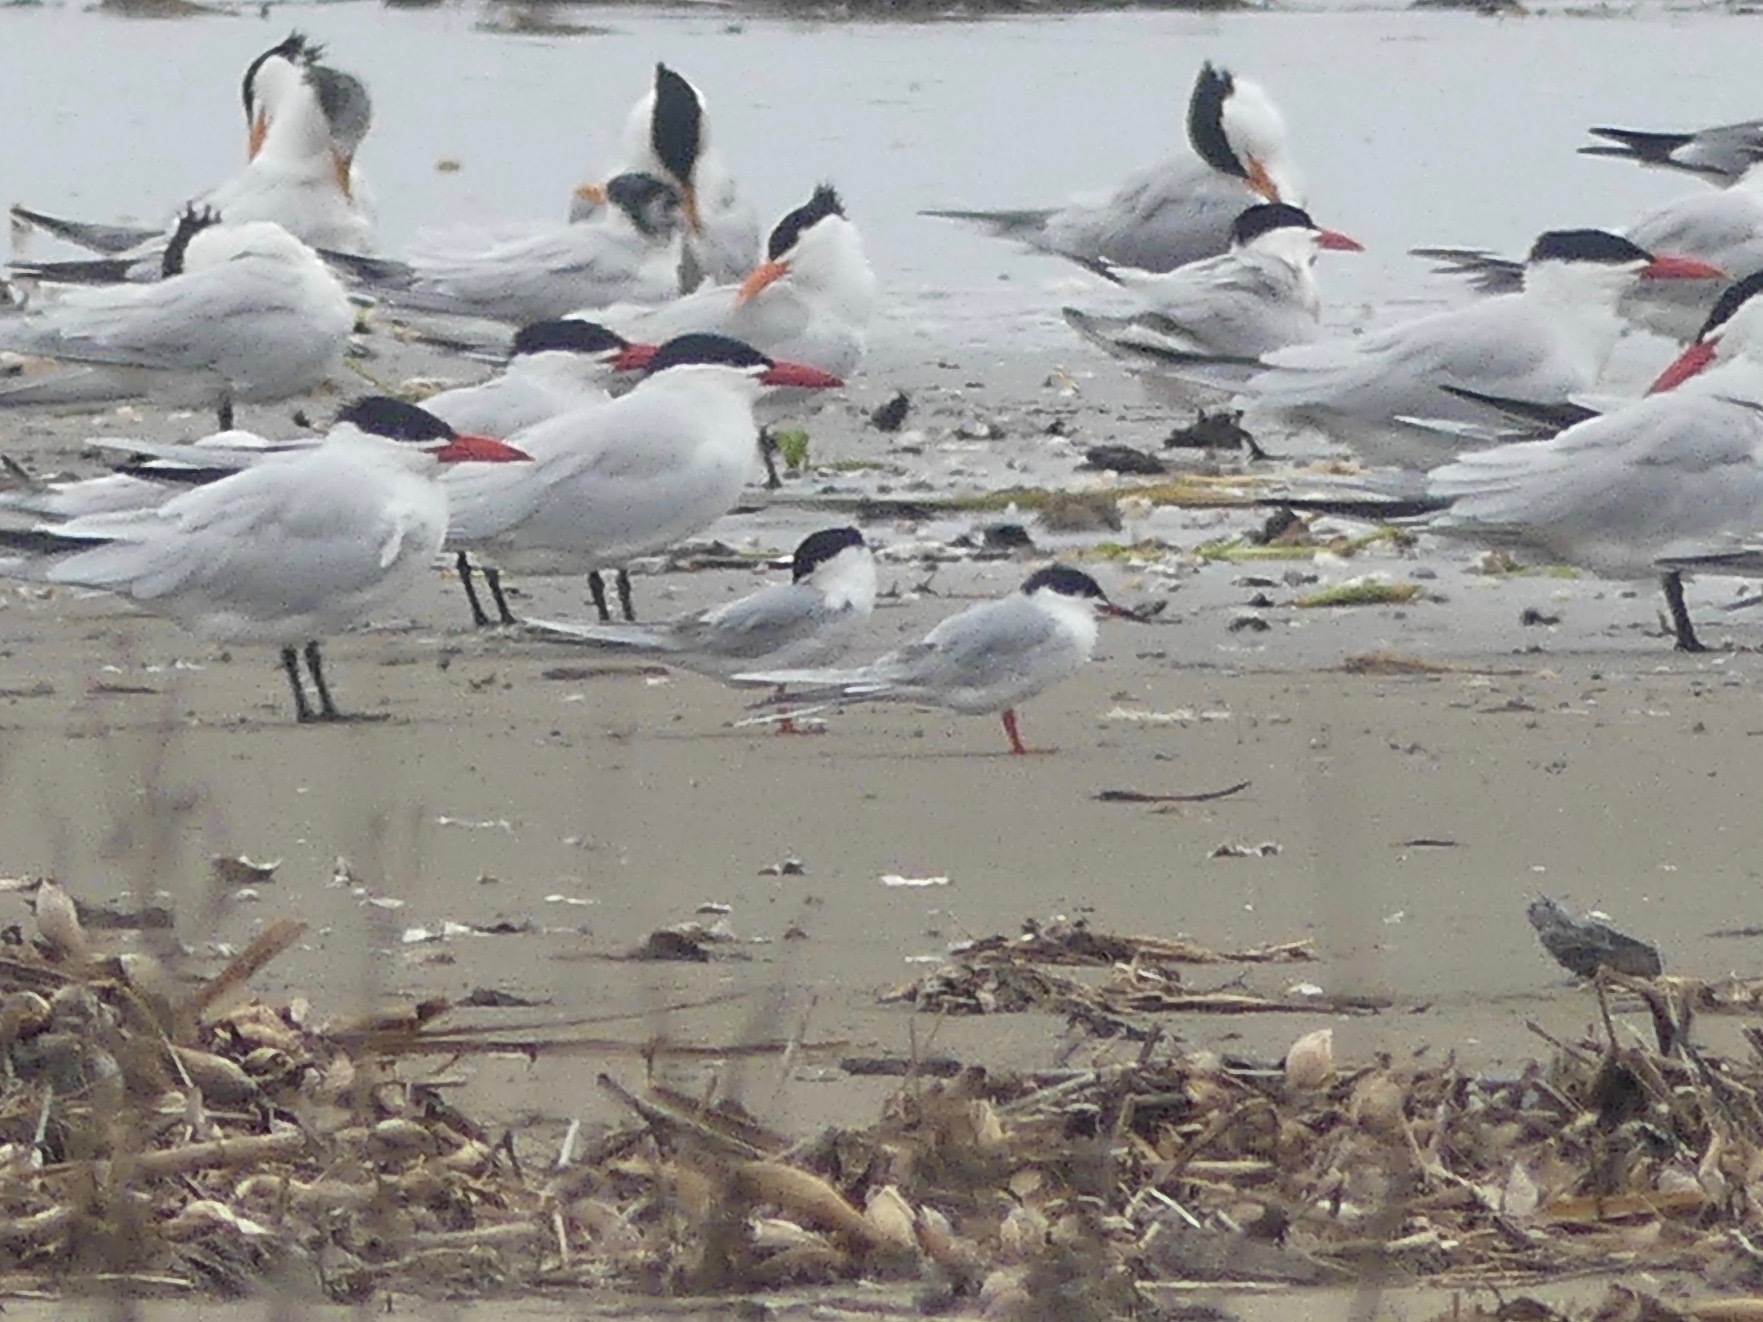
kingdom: Animalia
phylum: Chordata
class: Aves
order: Charadriiformes
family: Laridae
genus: Sterna
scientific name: Sterna hirundo
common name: Common tern
